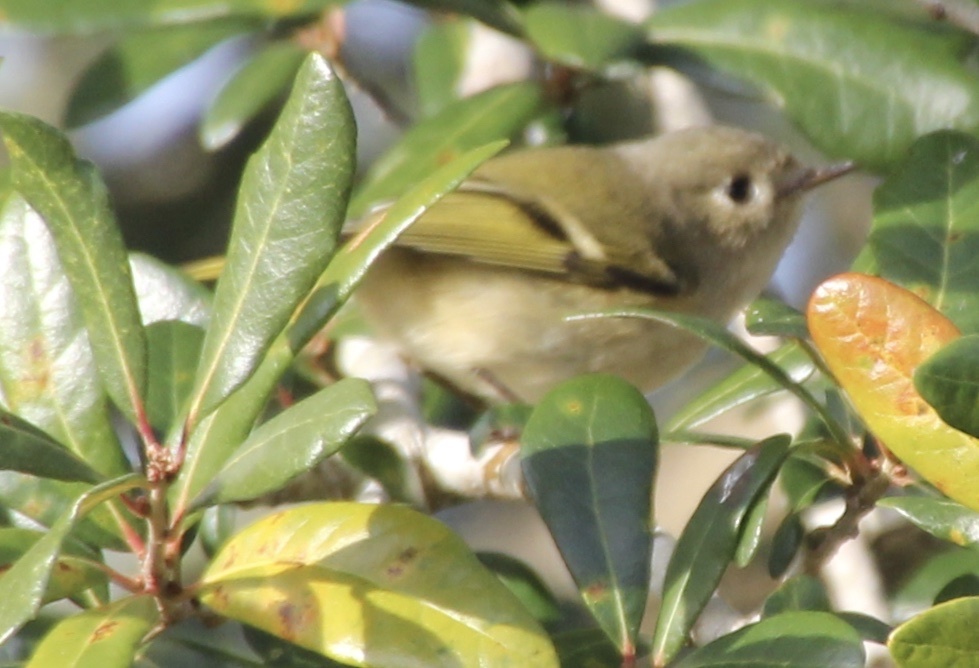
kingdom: Animalia
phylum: Chordata
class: Aves
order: Passeriformes
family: Regulidae
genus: Regulus
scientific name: Regulus calendula
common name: Ruby-crowned kinglet
